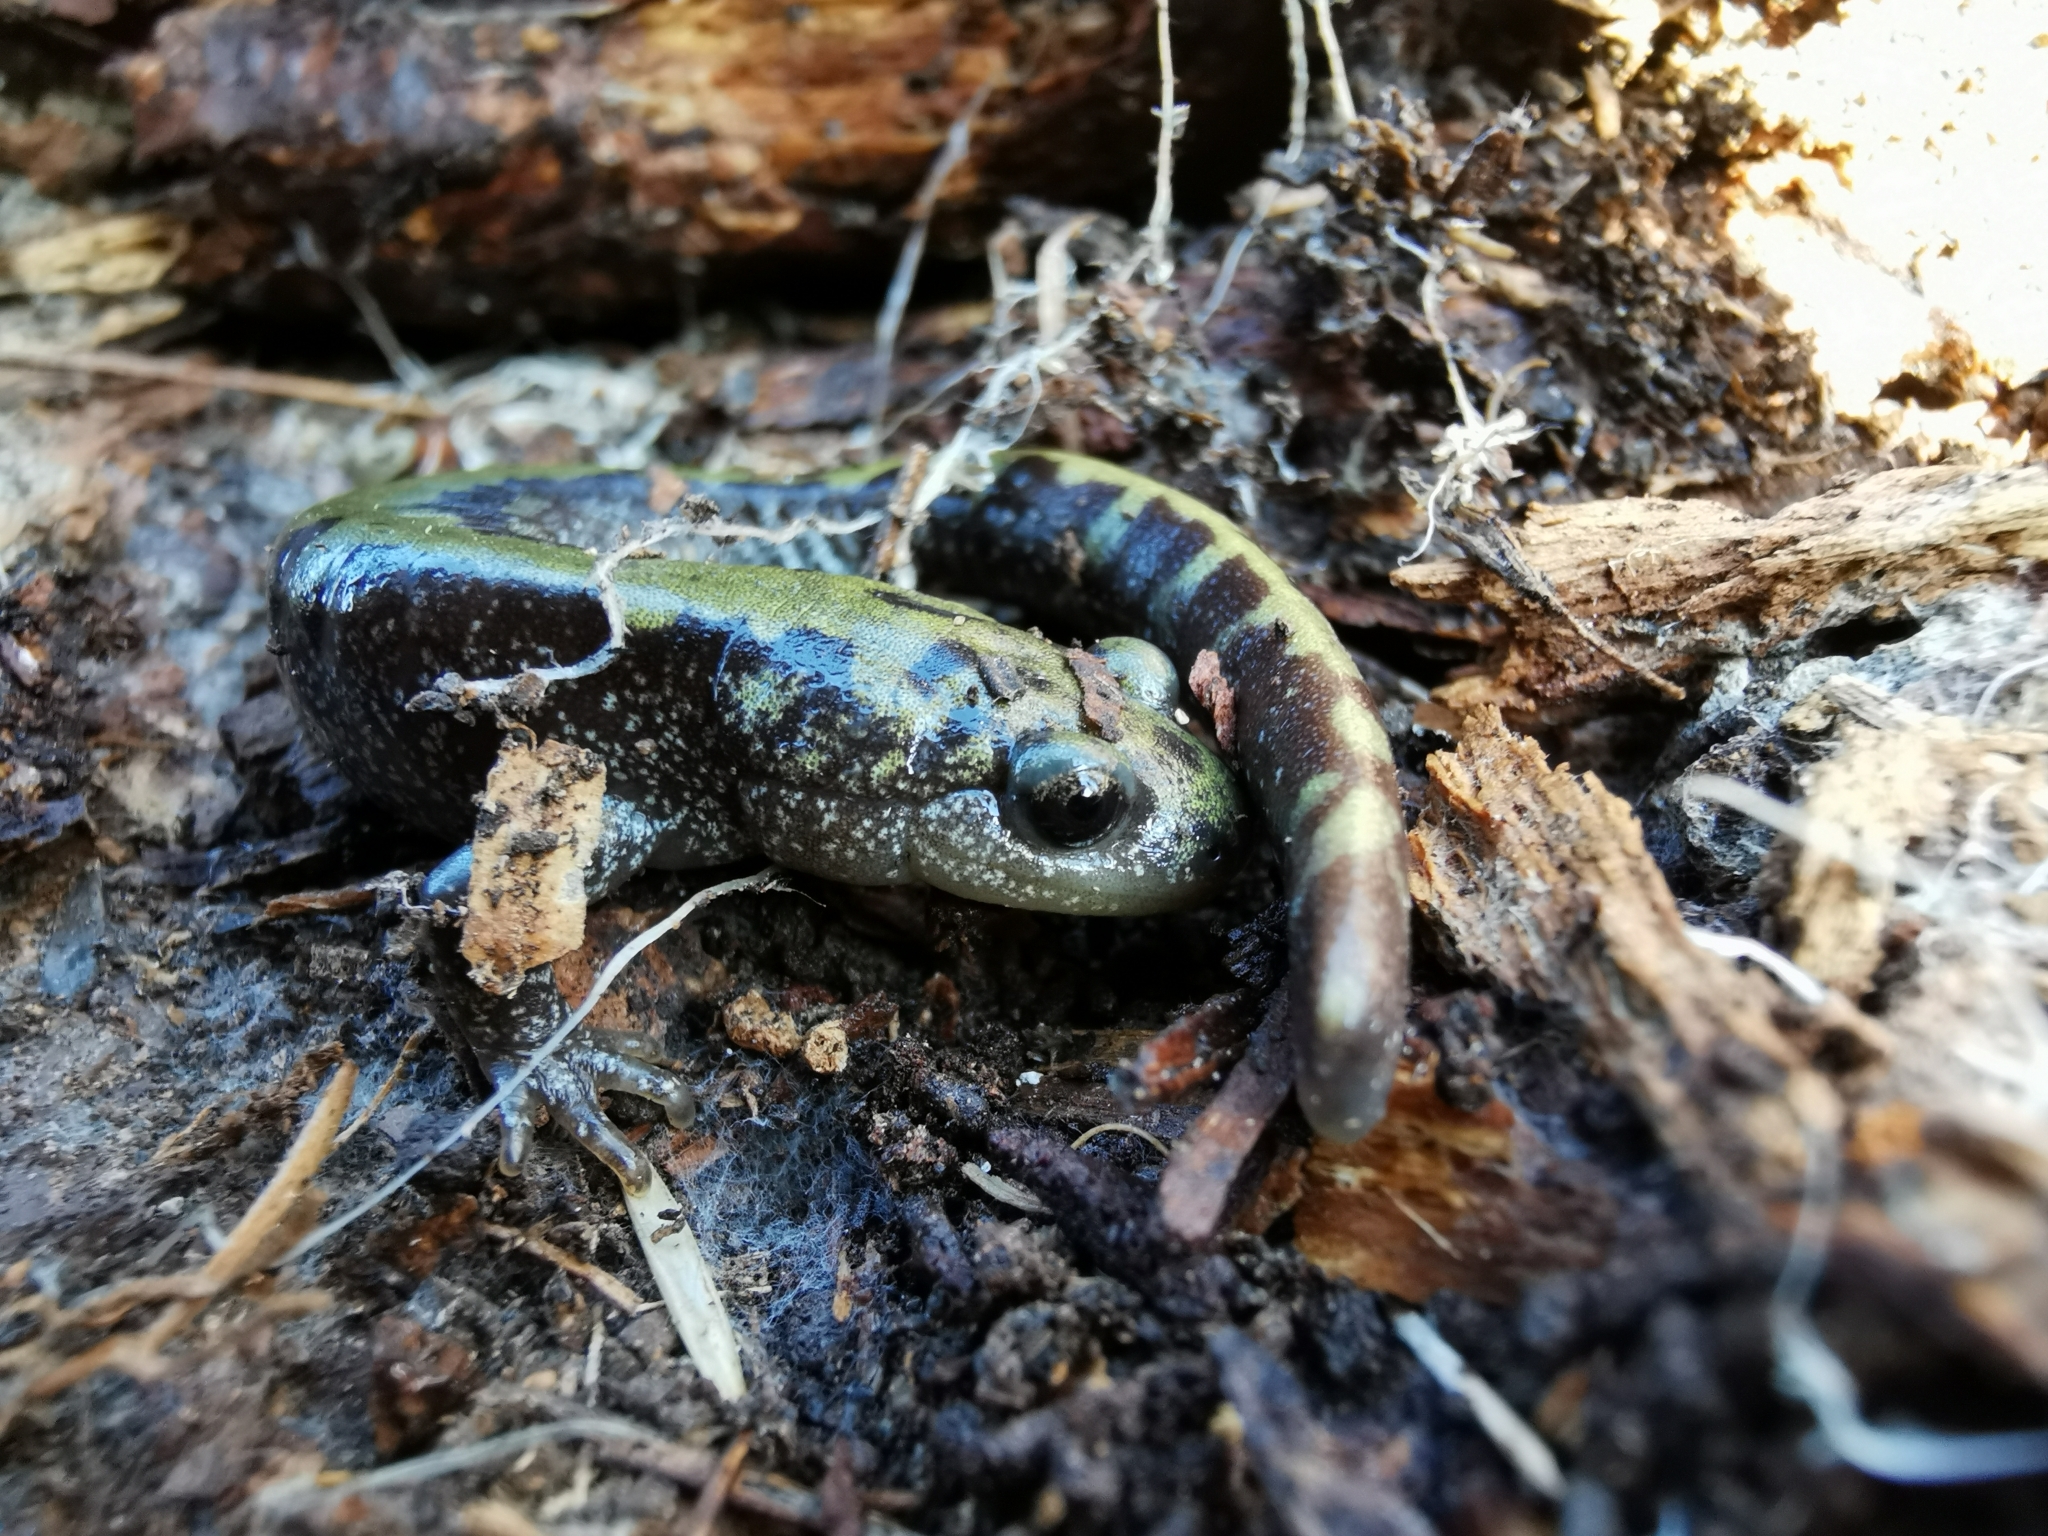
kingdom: Animalia
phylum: Chordata
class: Amphibia
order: Caudata
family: Ambystomatidae
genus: Ambystoma
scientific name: Ambystoma macrodactylum
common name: Long-toed salamander
